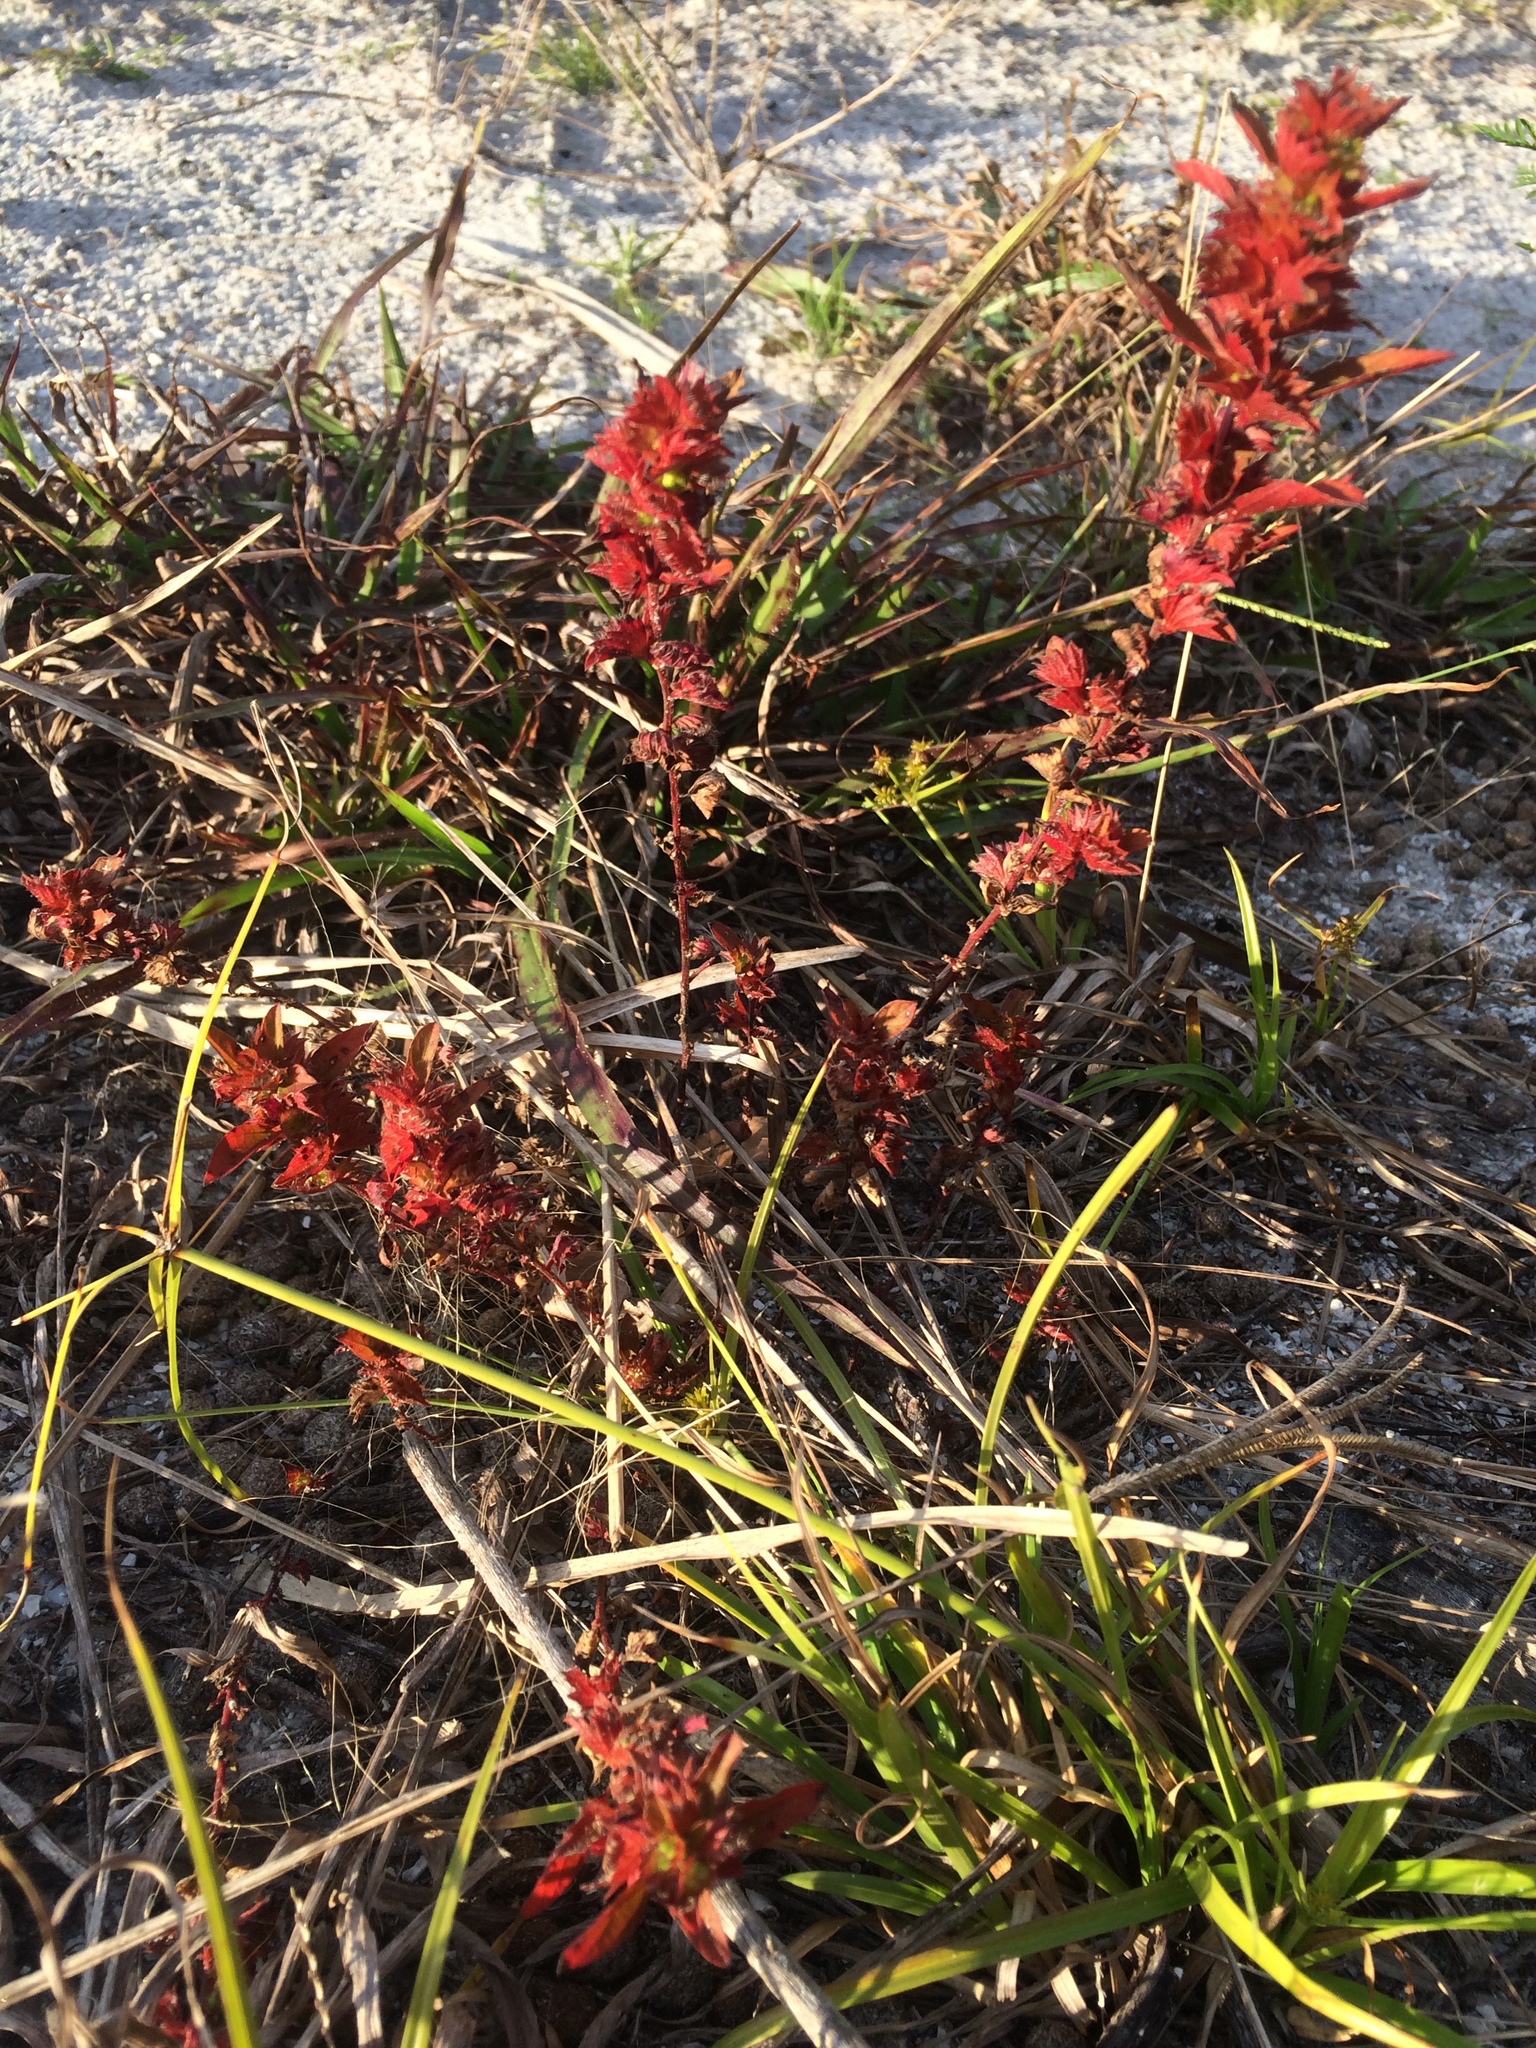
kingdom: Plantae
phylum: Tracheophyta
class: Magnoliopsida
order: Malpighiales
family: Euphorbiaceae
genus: Acalypha
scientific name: Acalypha gracilens
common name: Slender three-seeded mercury
